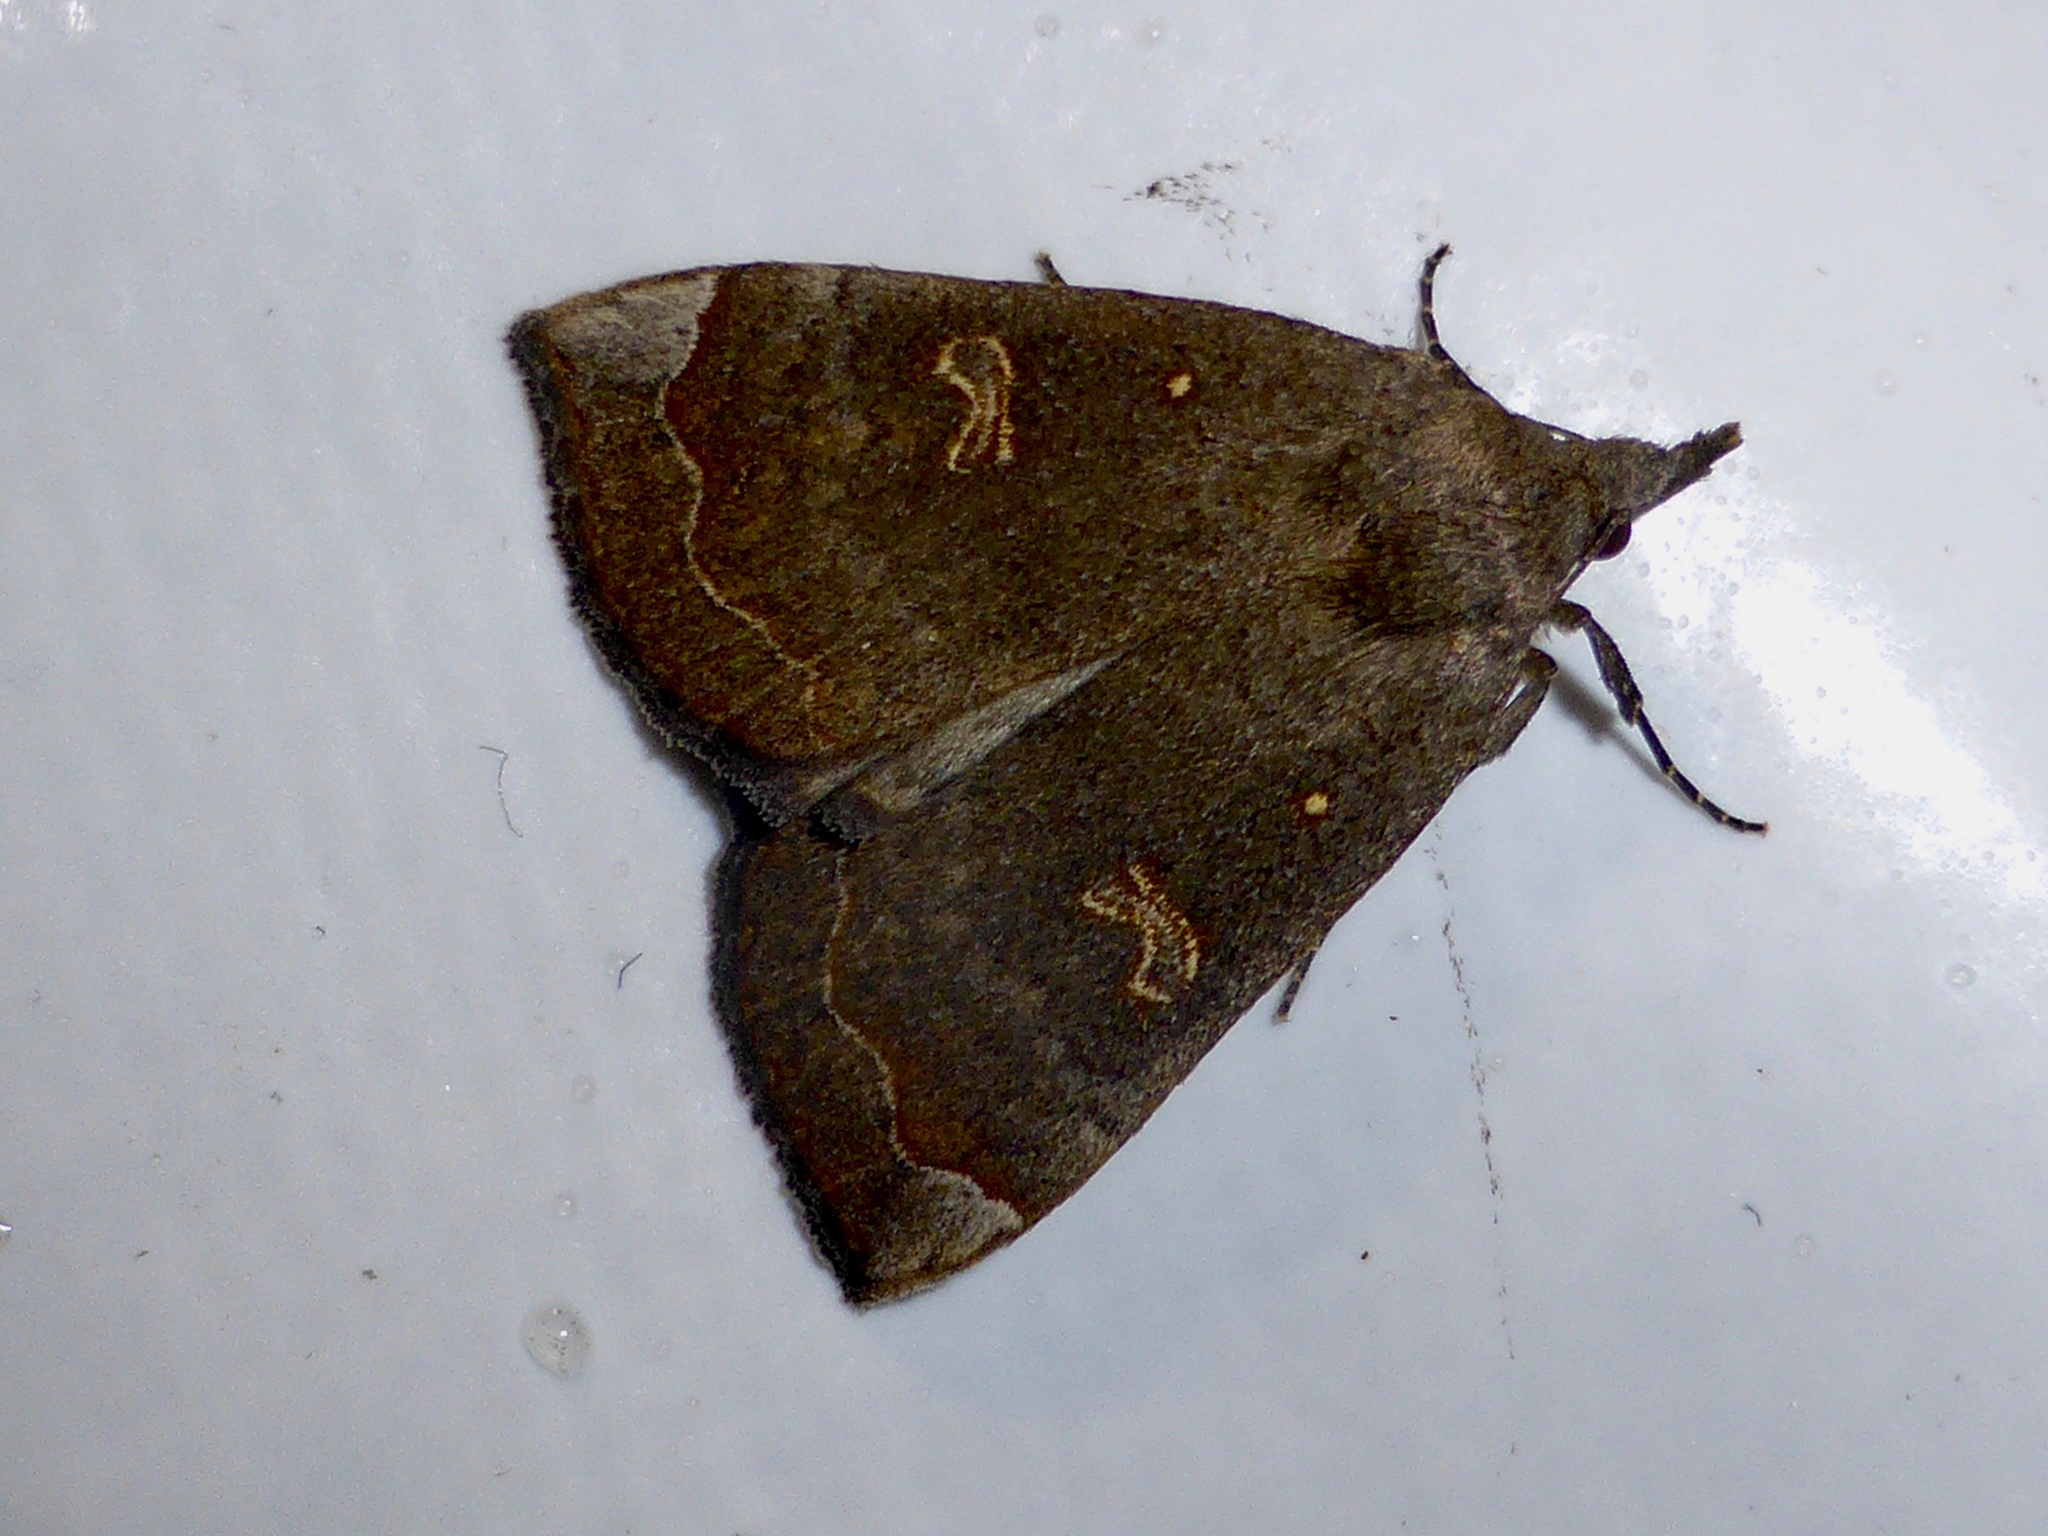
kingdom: Animalia
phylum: Arthropoda
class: Insecta
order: Lepidoptera
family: Erebidae
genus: Rhapsa
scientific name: Rhapsa scotosialis
